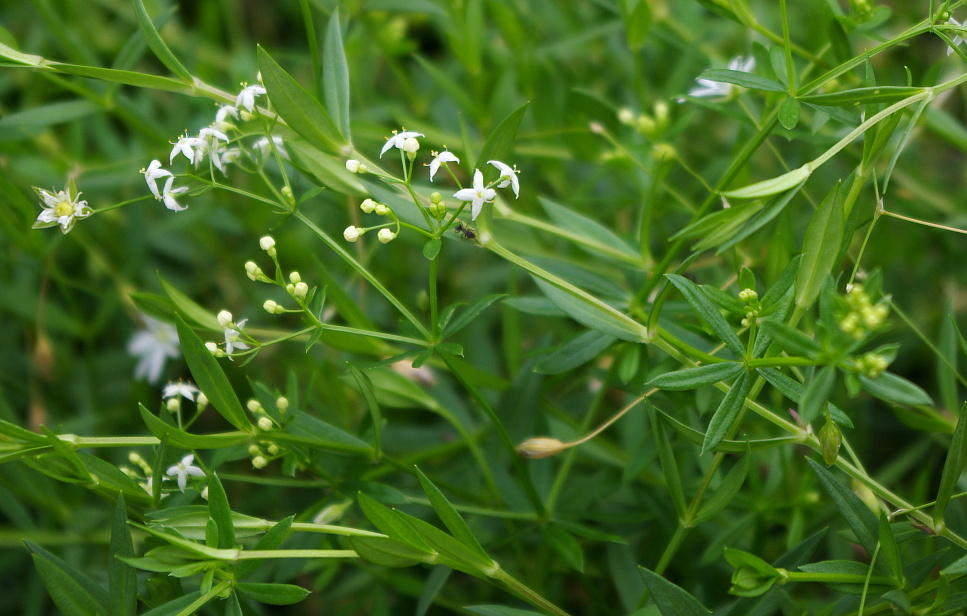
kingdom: Plantae
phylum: Tracheophyta
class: Magnoliopsida
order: Gentianales
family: Rubiaceae
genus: Galium
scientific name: Galium mollugo
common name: Hedge bedstraw
